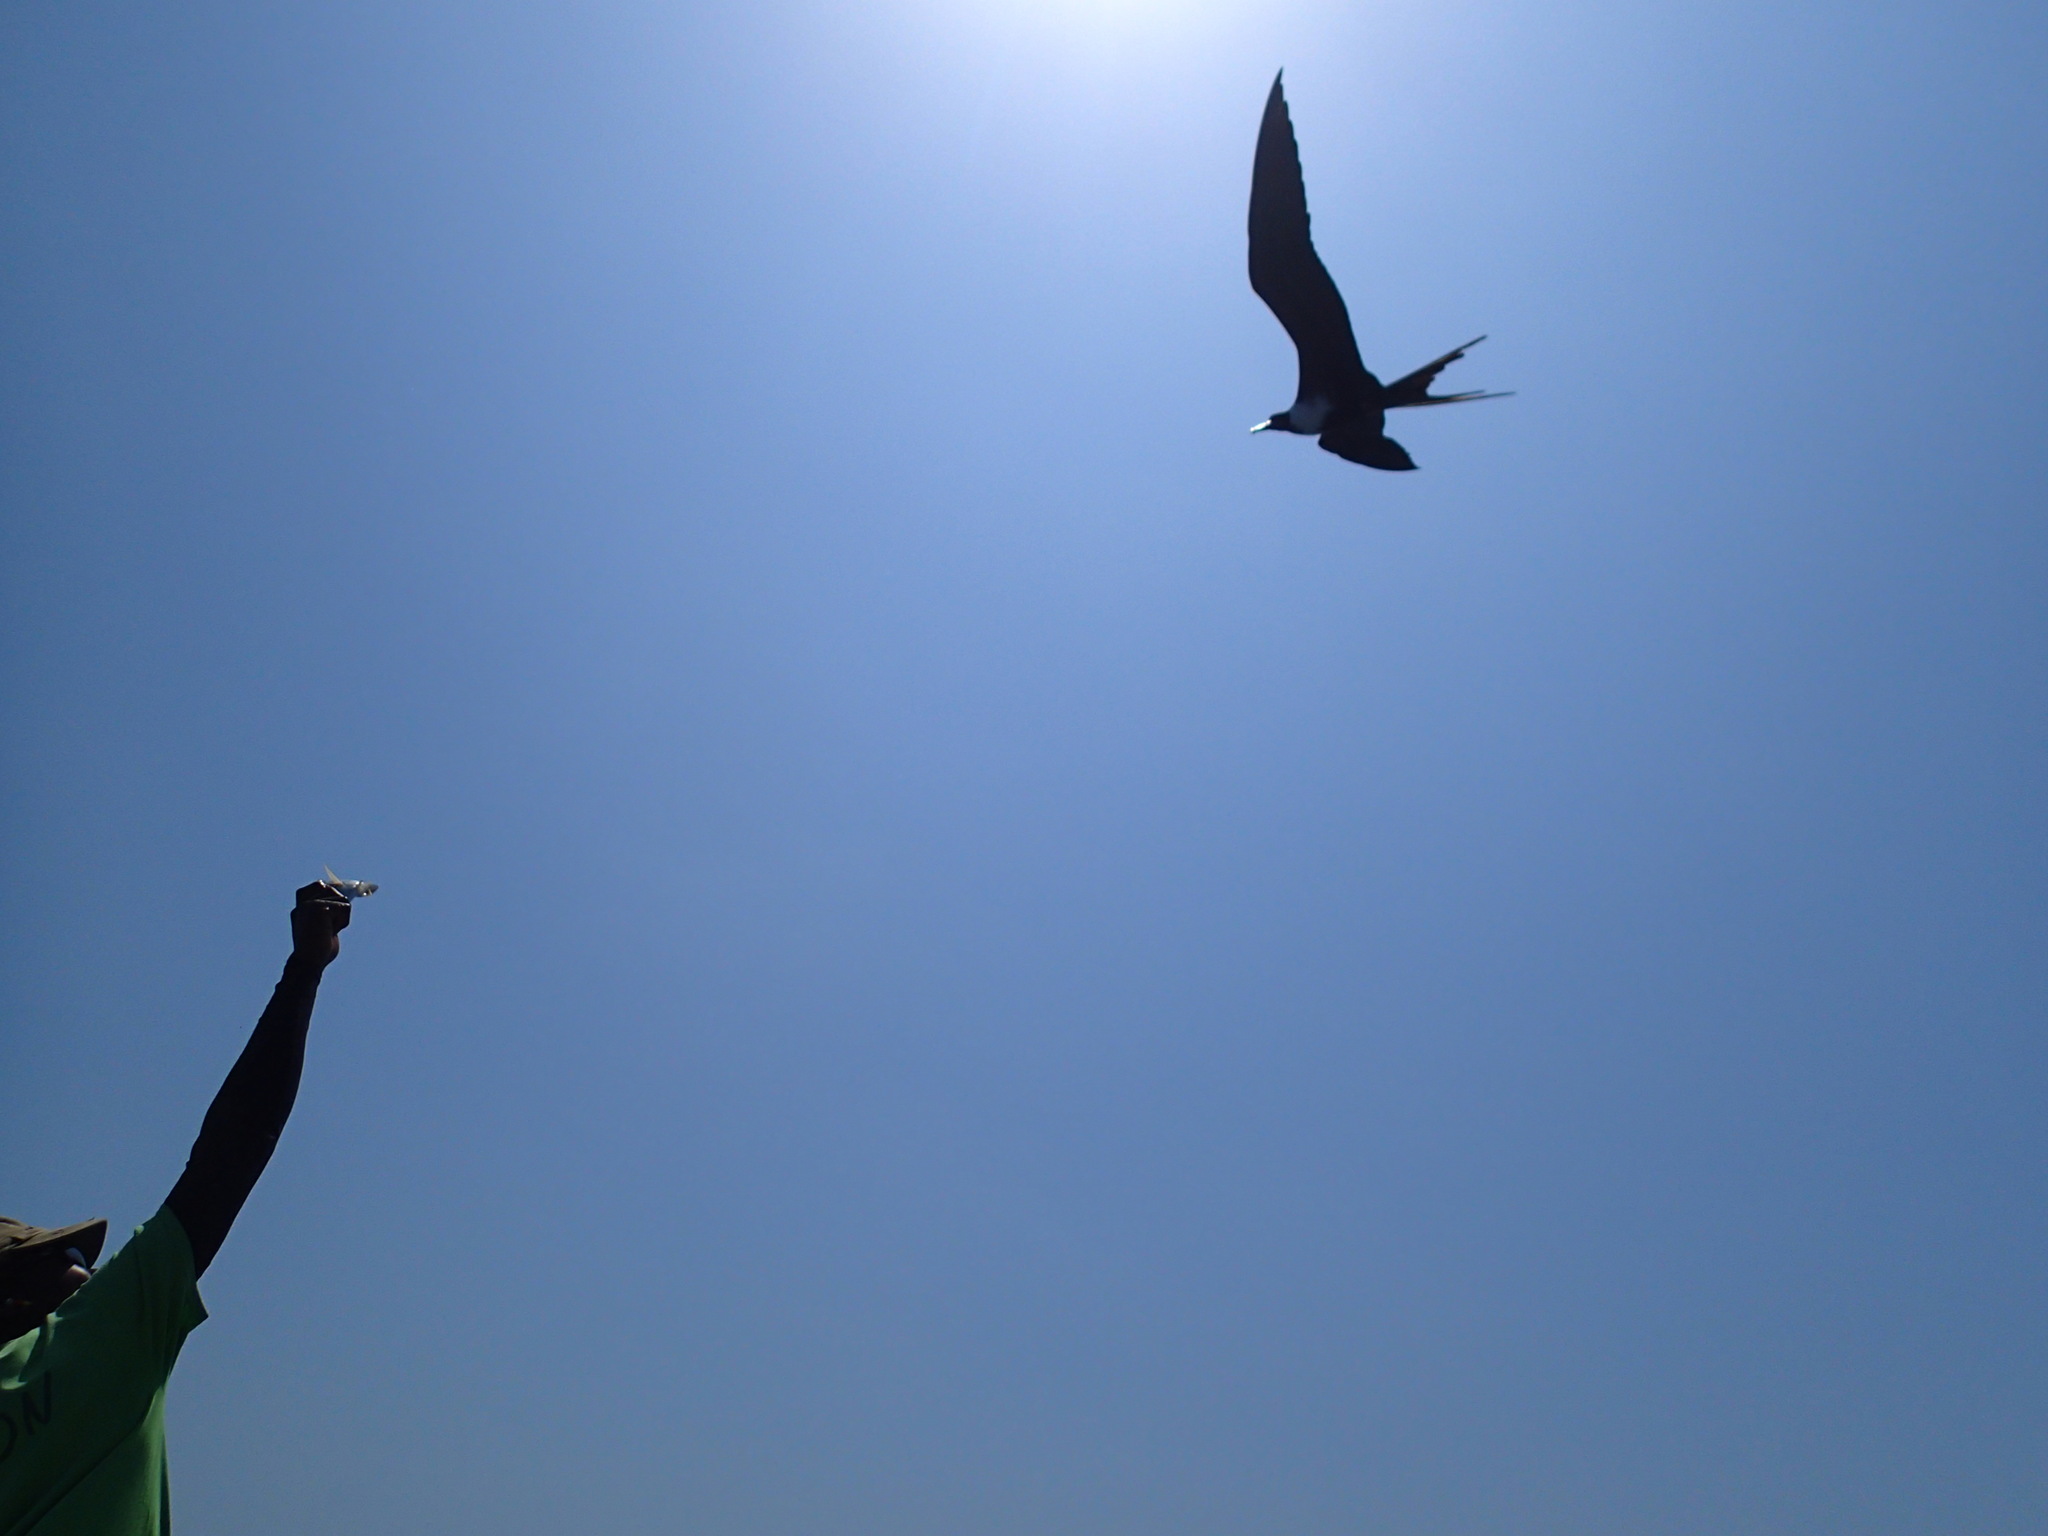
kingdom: Animalia
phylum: Chordata
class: Aves
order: Suliformes
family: Fregatidae
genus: Fregata
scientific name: Fregata magnificens
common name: Magnificent frigatebird
